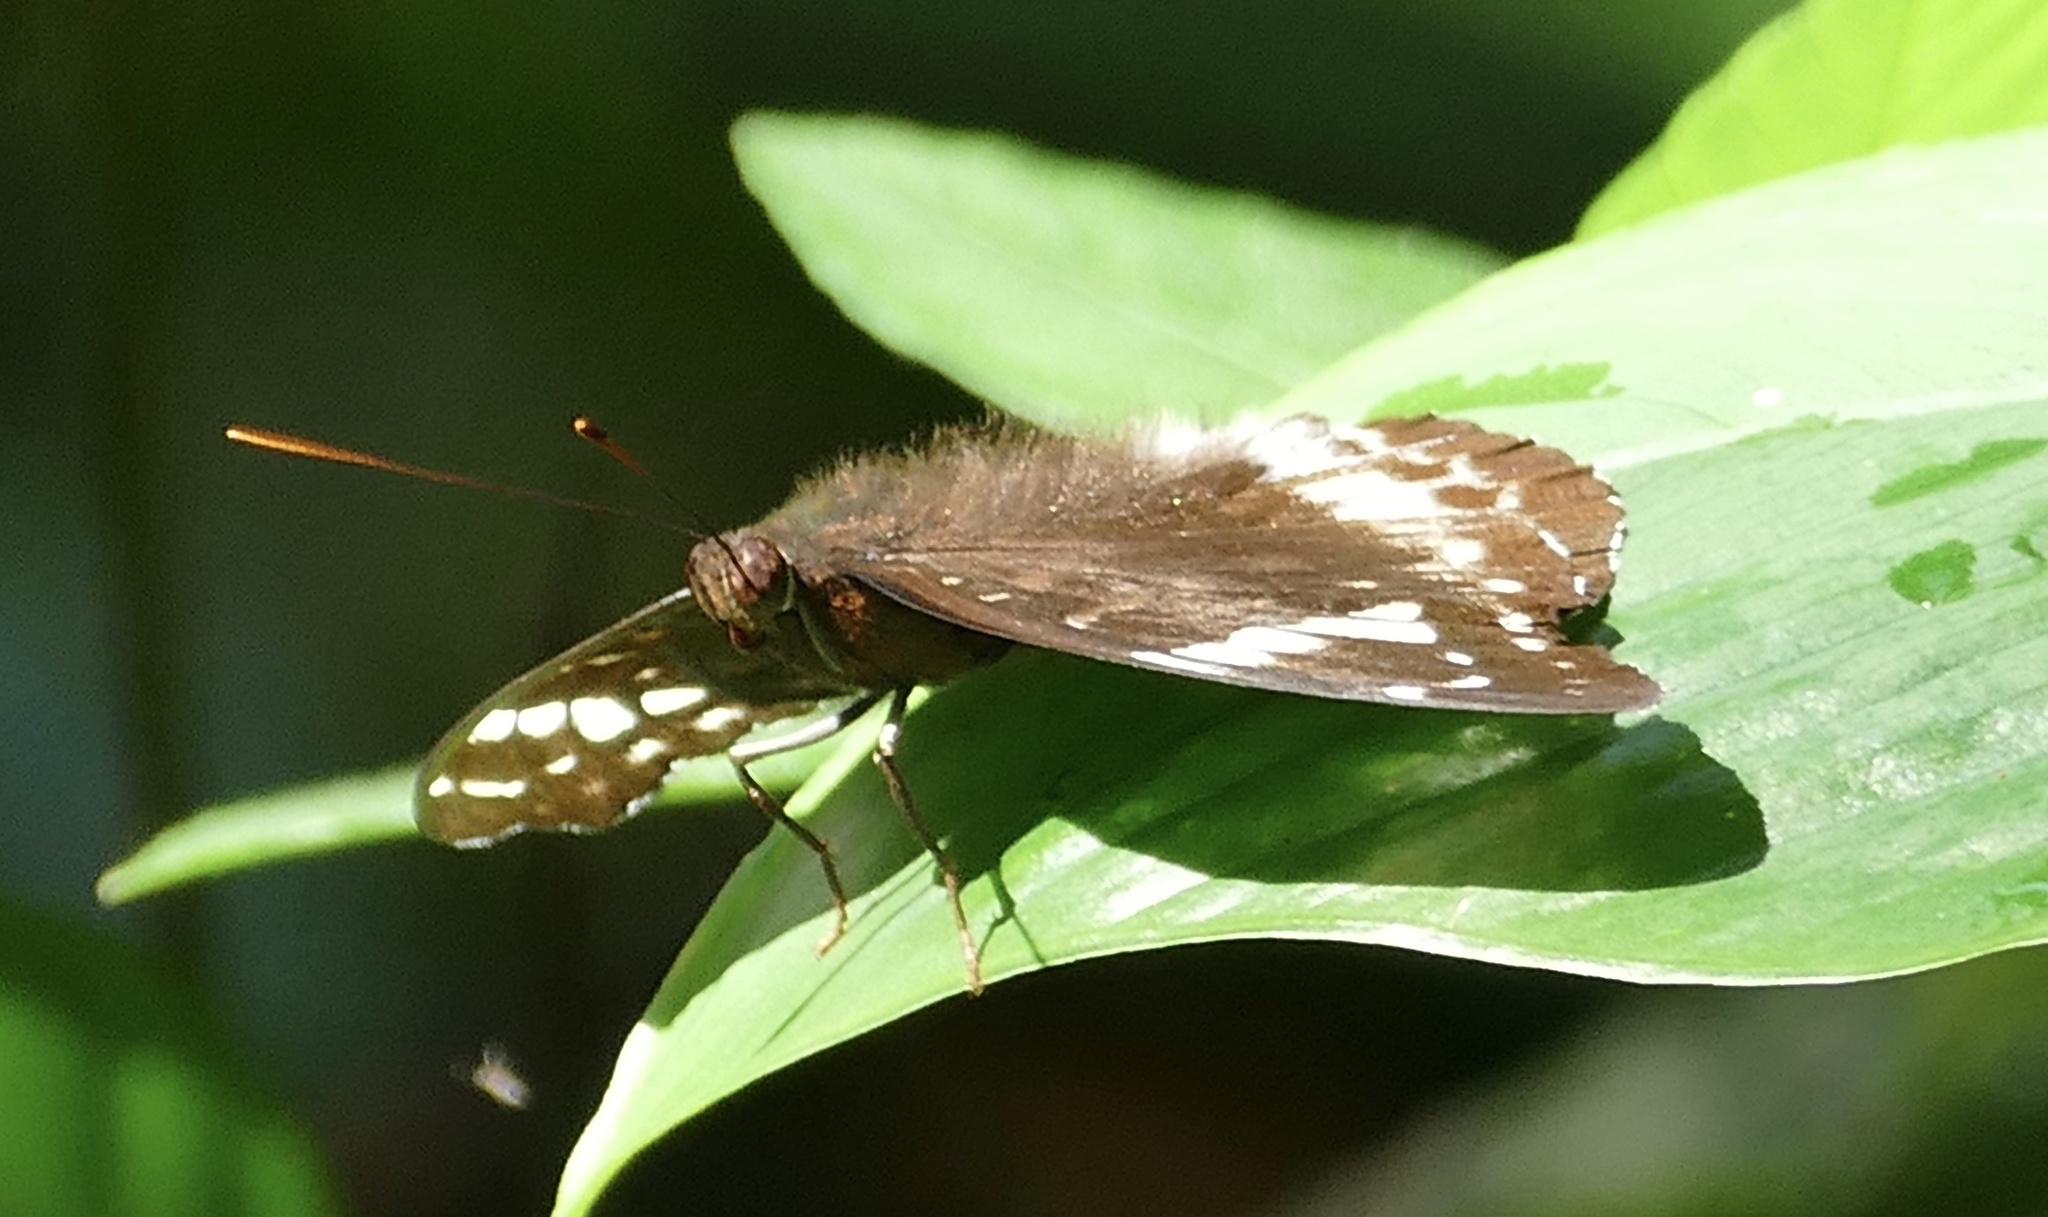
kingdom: Animalia
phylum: Arthropoda
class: Insecta
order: Lepidoptera
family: Nymphalidae
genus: Lexias
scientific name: Lexias aeetes
